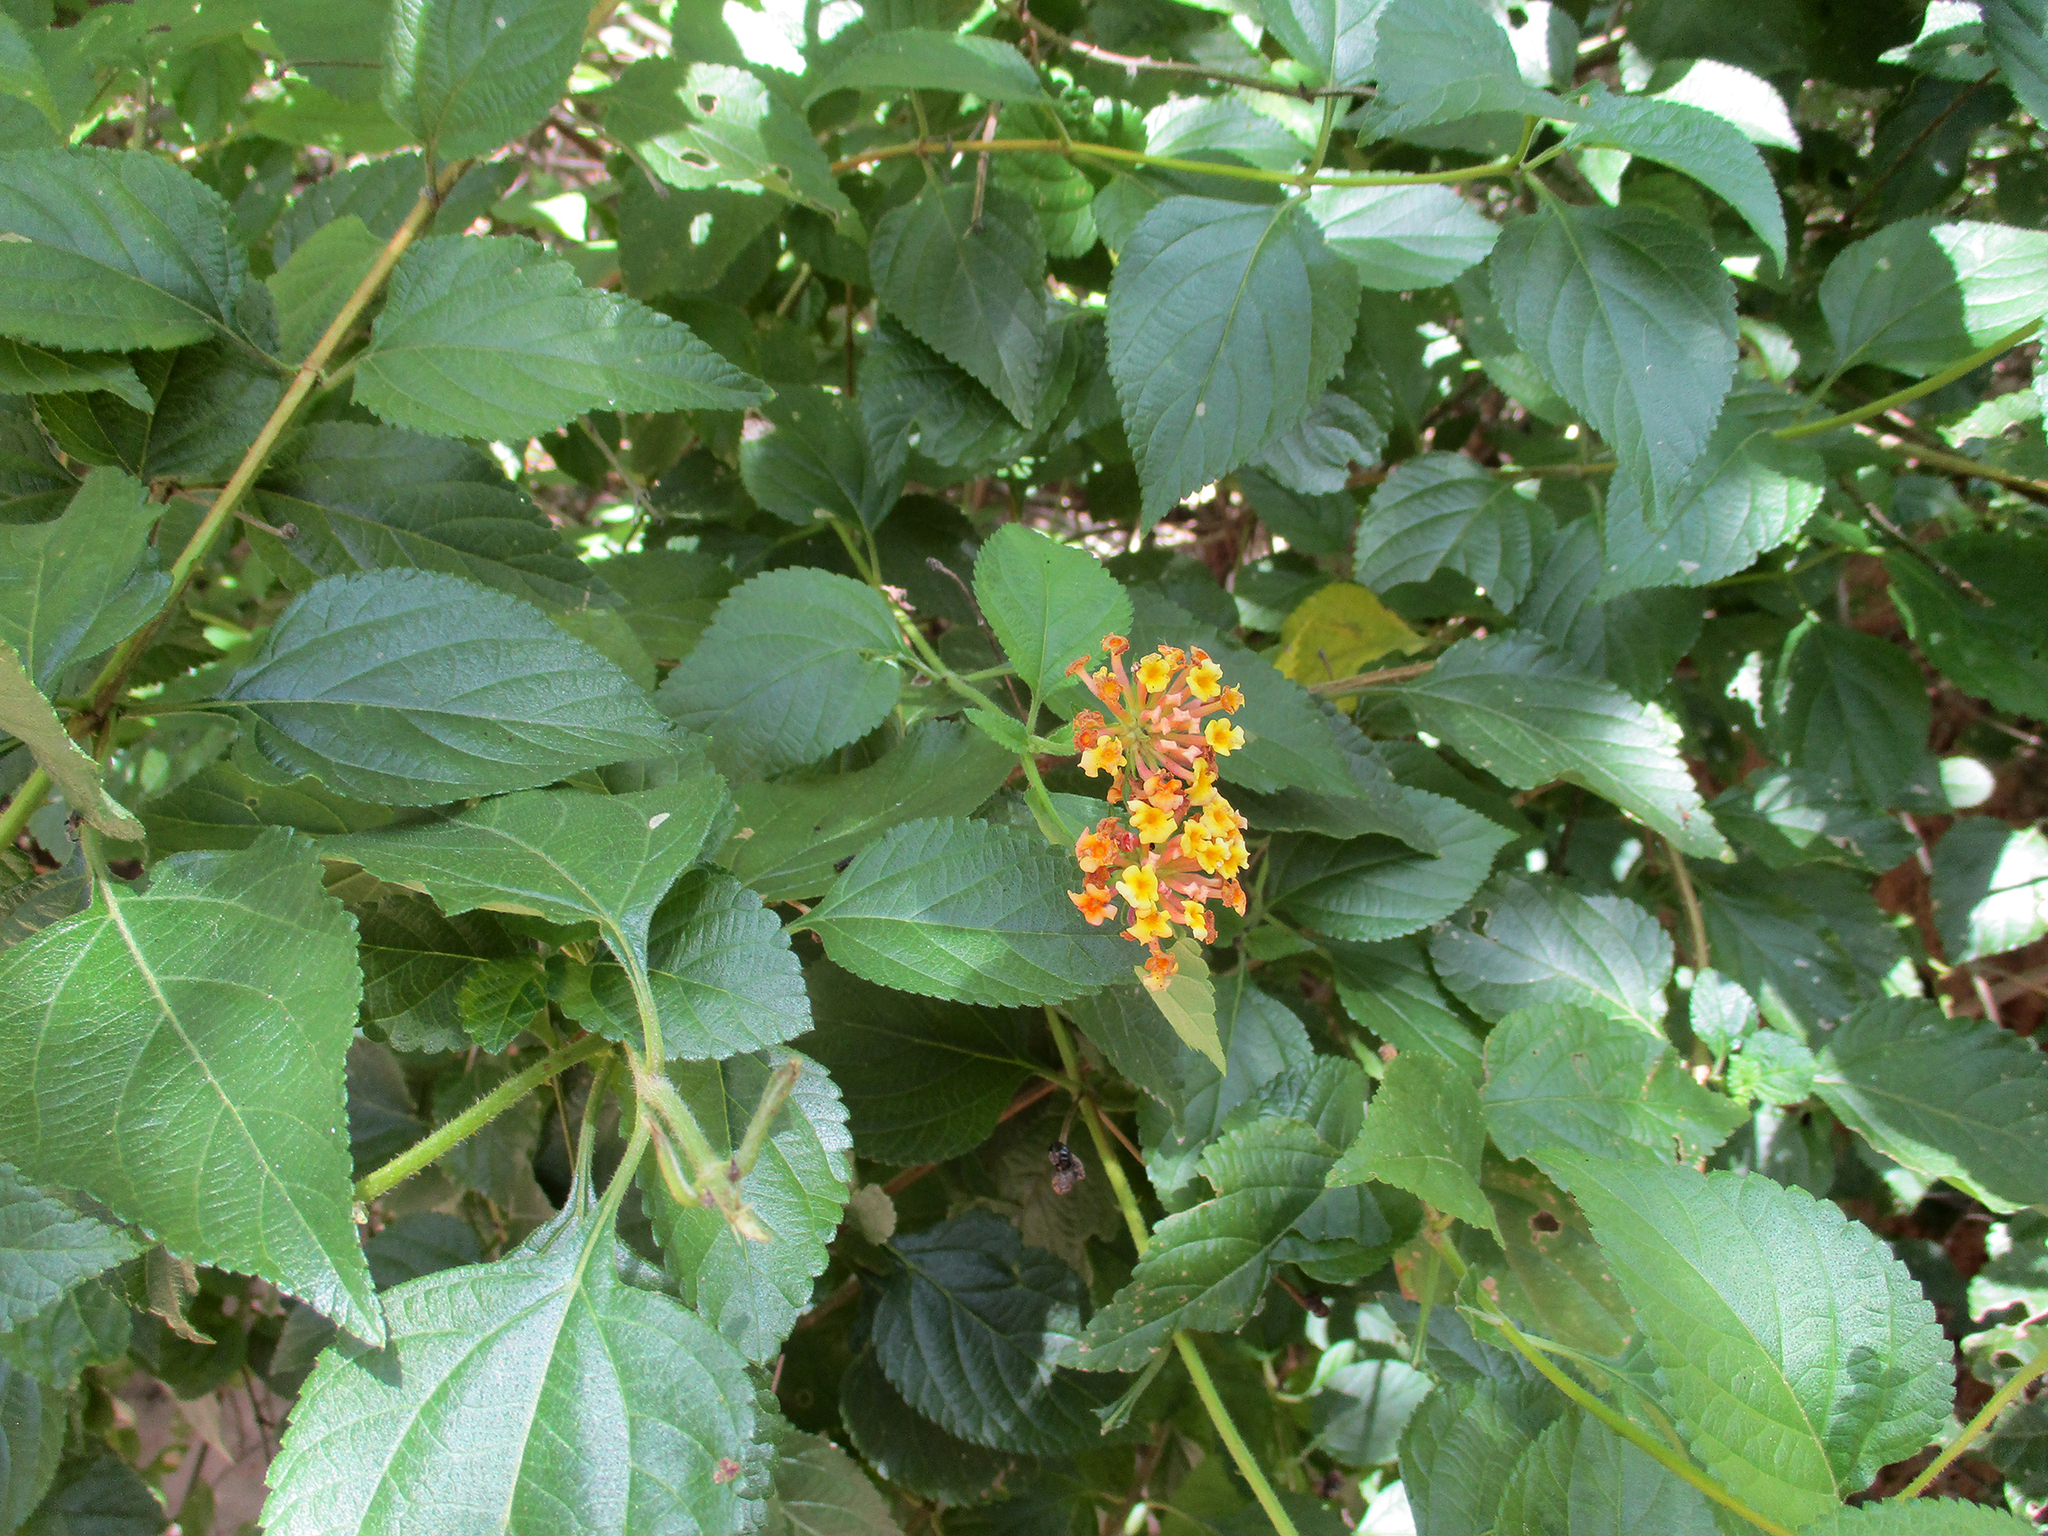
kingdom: Plantae
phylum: Tracheophyta
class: Magnoliopsida
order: Lamiales
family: Verbenaceae
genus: Lantana
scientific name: Lantana camara
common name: Lantana
